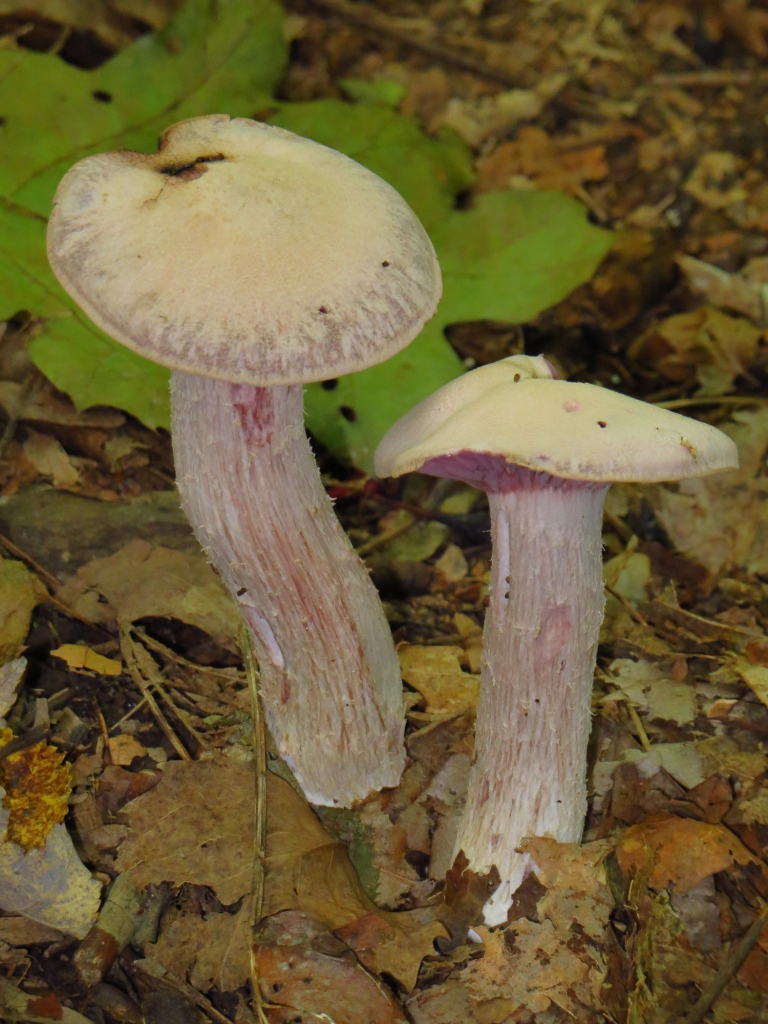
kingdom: Fungi
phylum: Basidiomycota
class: Agaricomycetes
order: Agaricales
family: Hydnangiaceae
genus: Laccaria
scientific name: Laccaria ochropurpurea
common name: Purple laccaria
